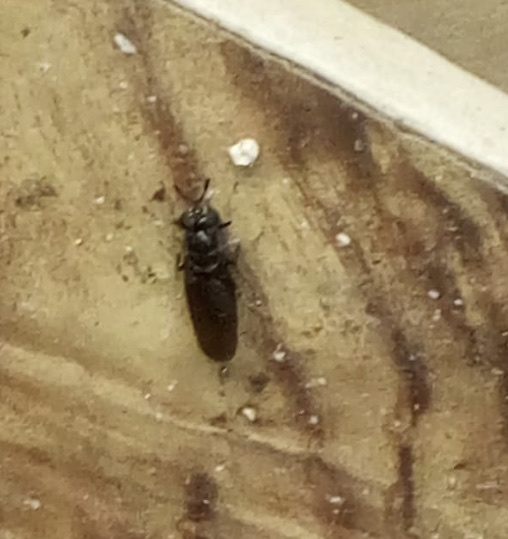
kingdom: Animalia
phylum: Arthropoda
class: Insecta
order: Diptera
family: Stratiomyidae
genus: Hermetia
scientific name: Hermetia illucens
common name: Black soldier fly
